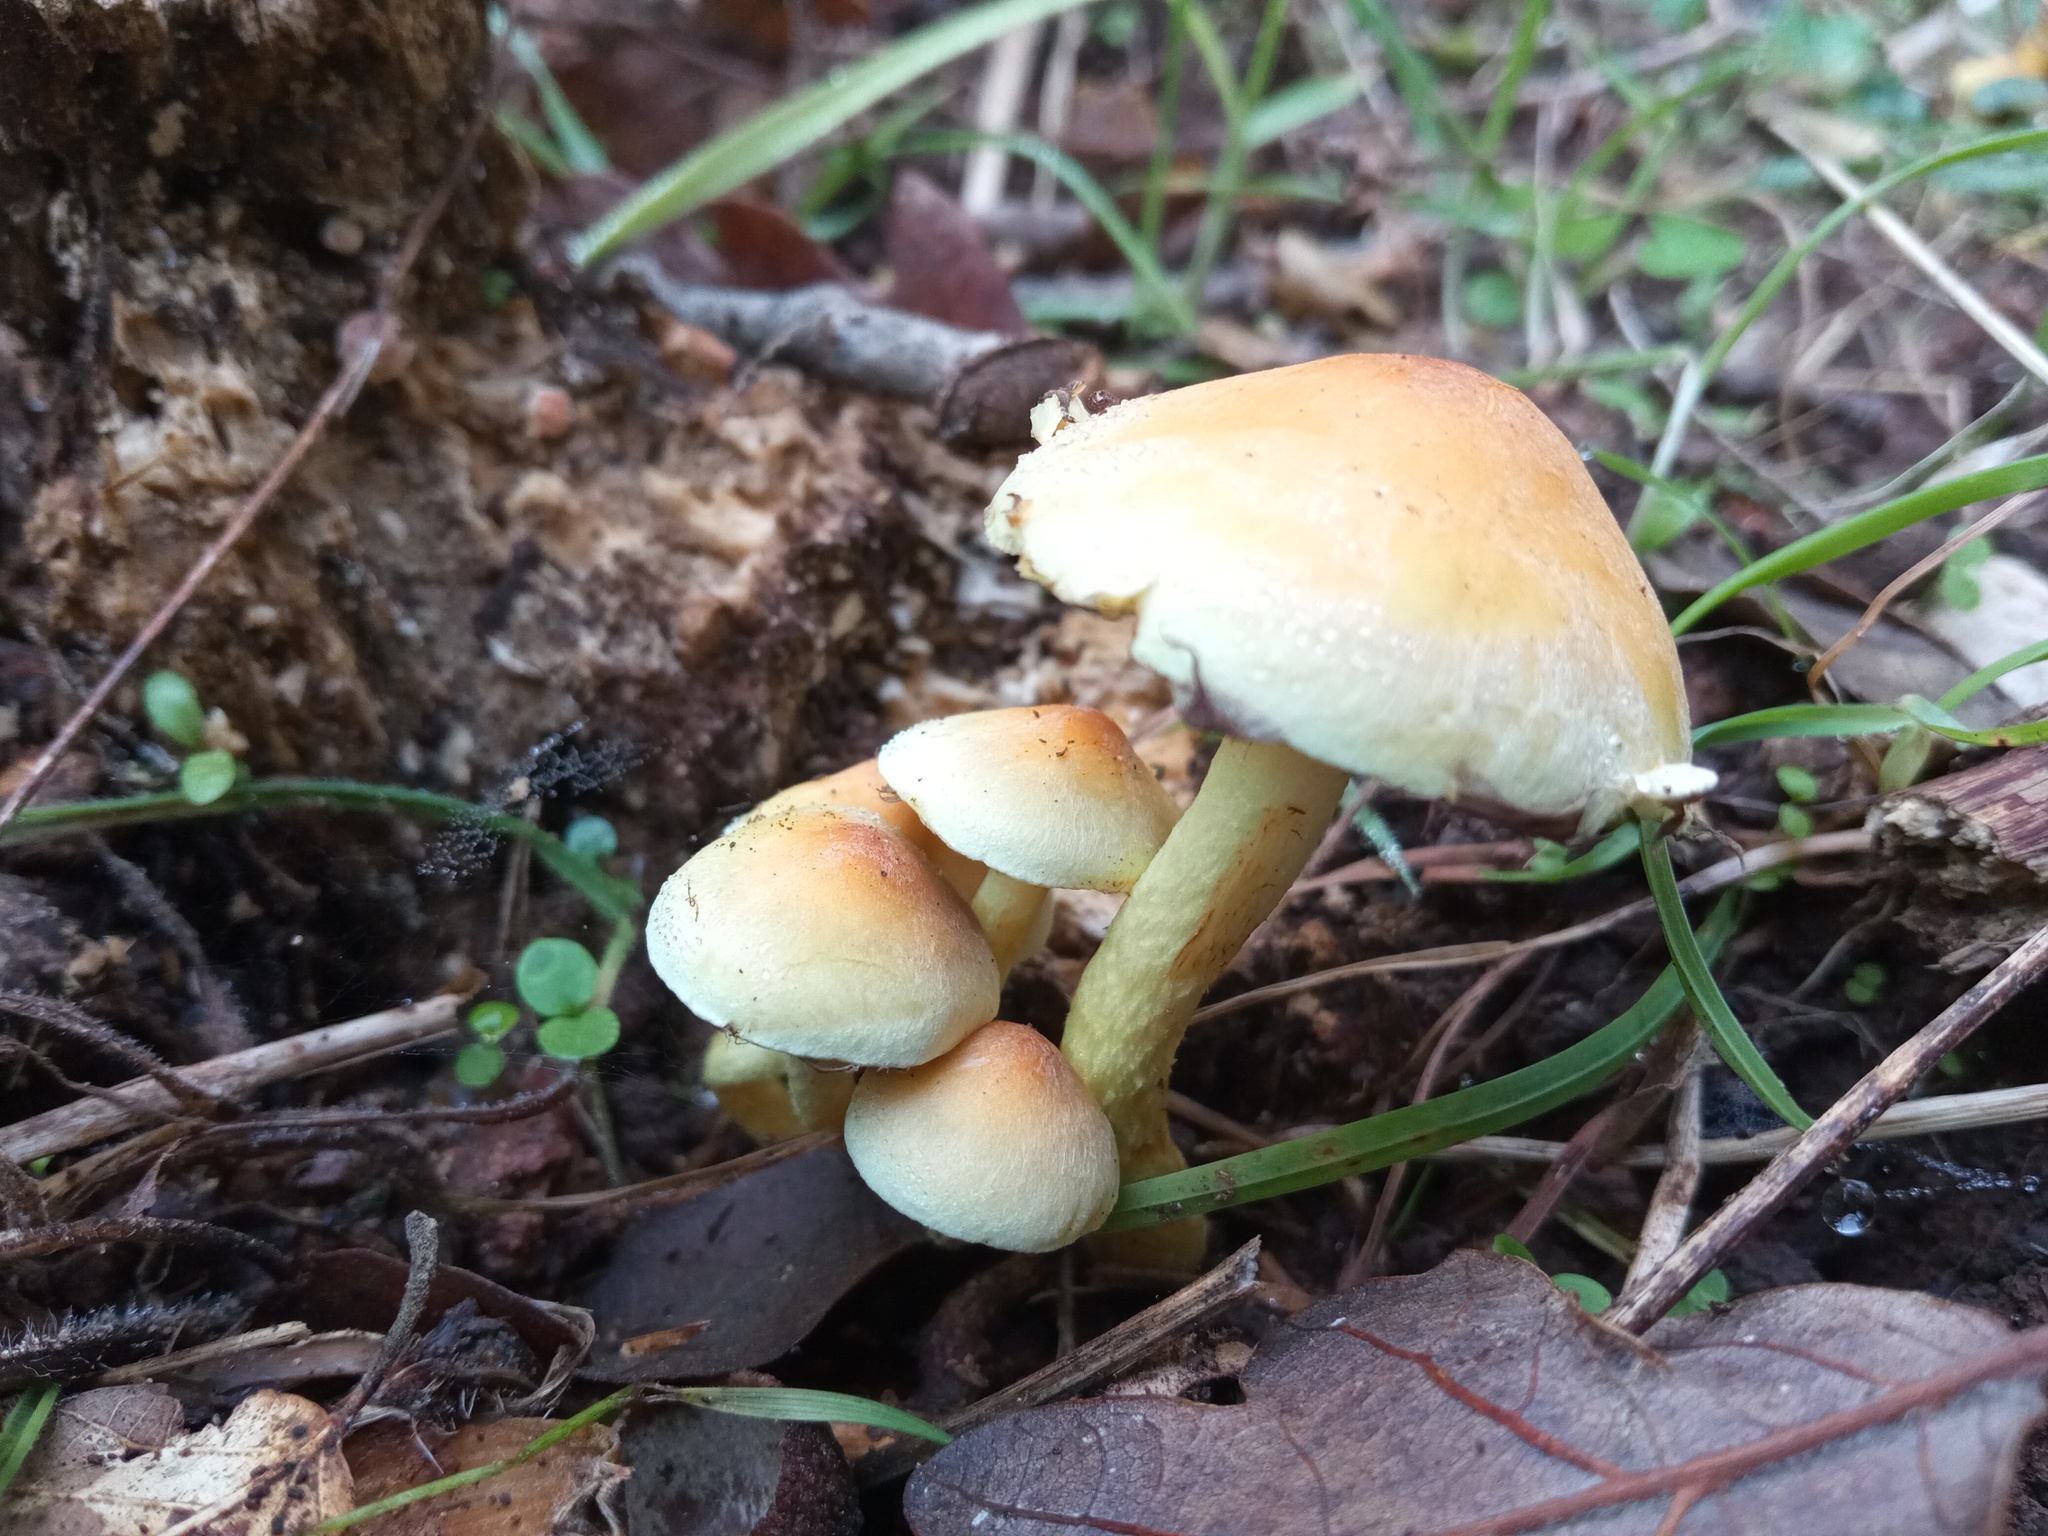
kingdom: Fungi
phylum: Basidiomycota
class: Agaricomycetes
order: Agaricales
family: Strophariaceae
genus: Hypholoma
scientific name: Hypholoma fasciculare
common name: Sulphur tuft
